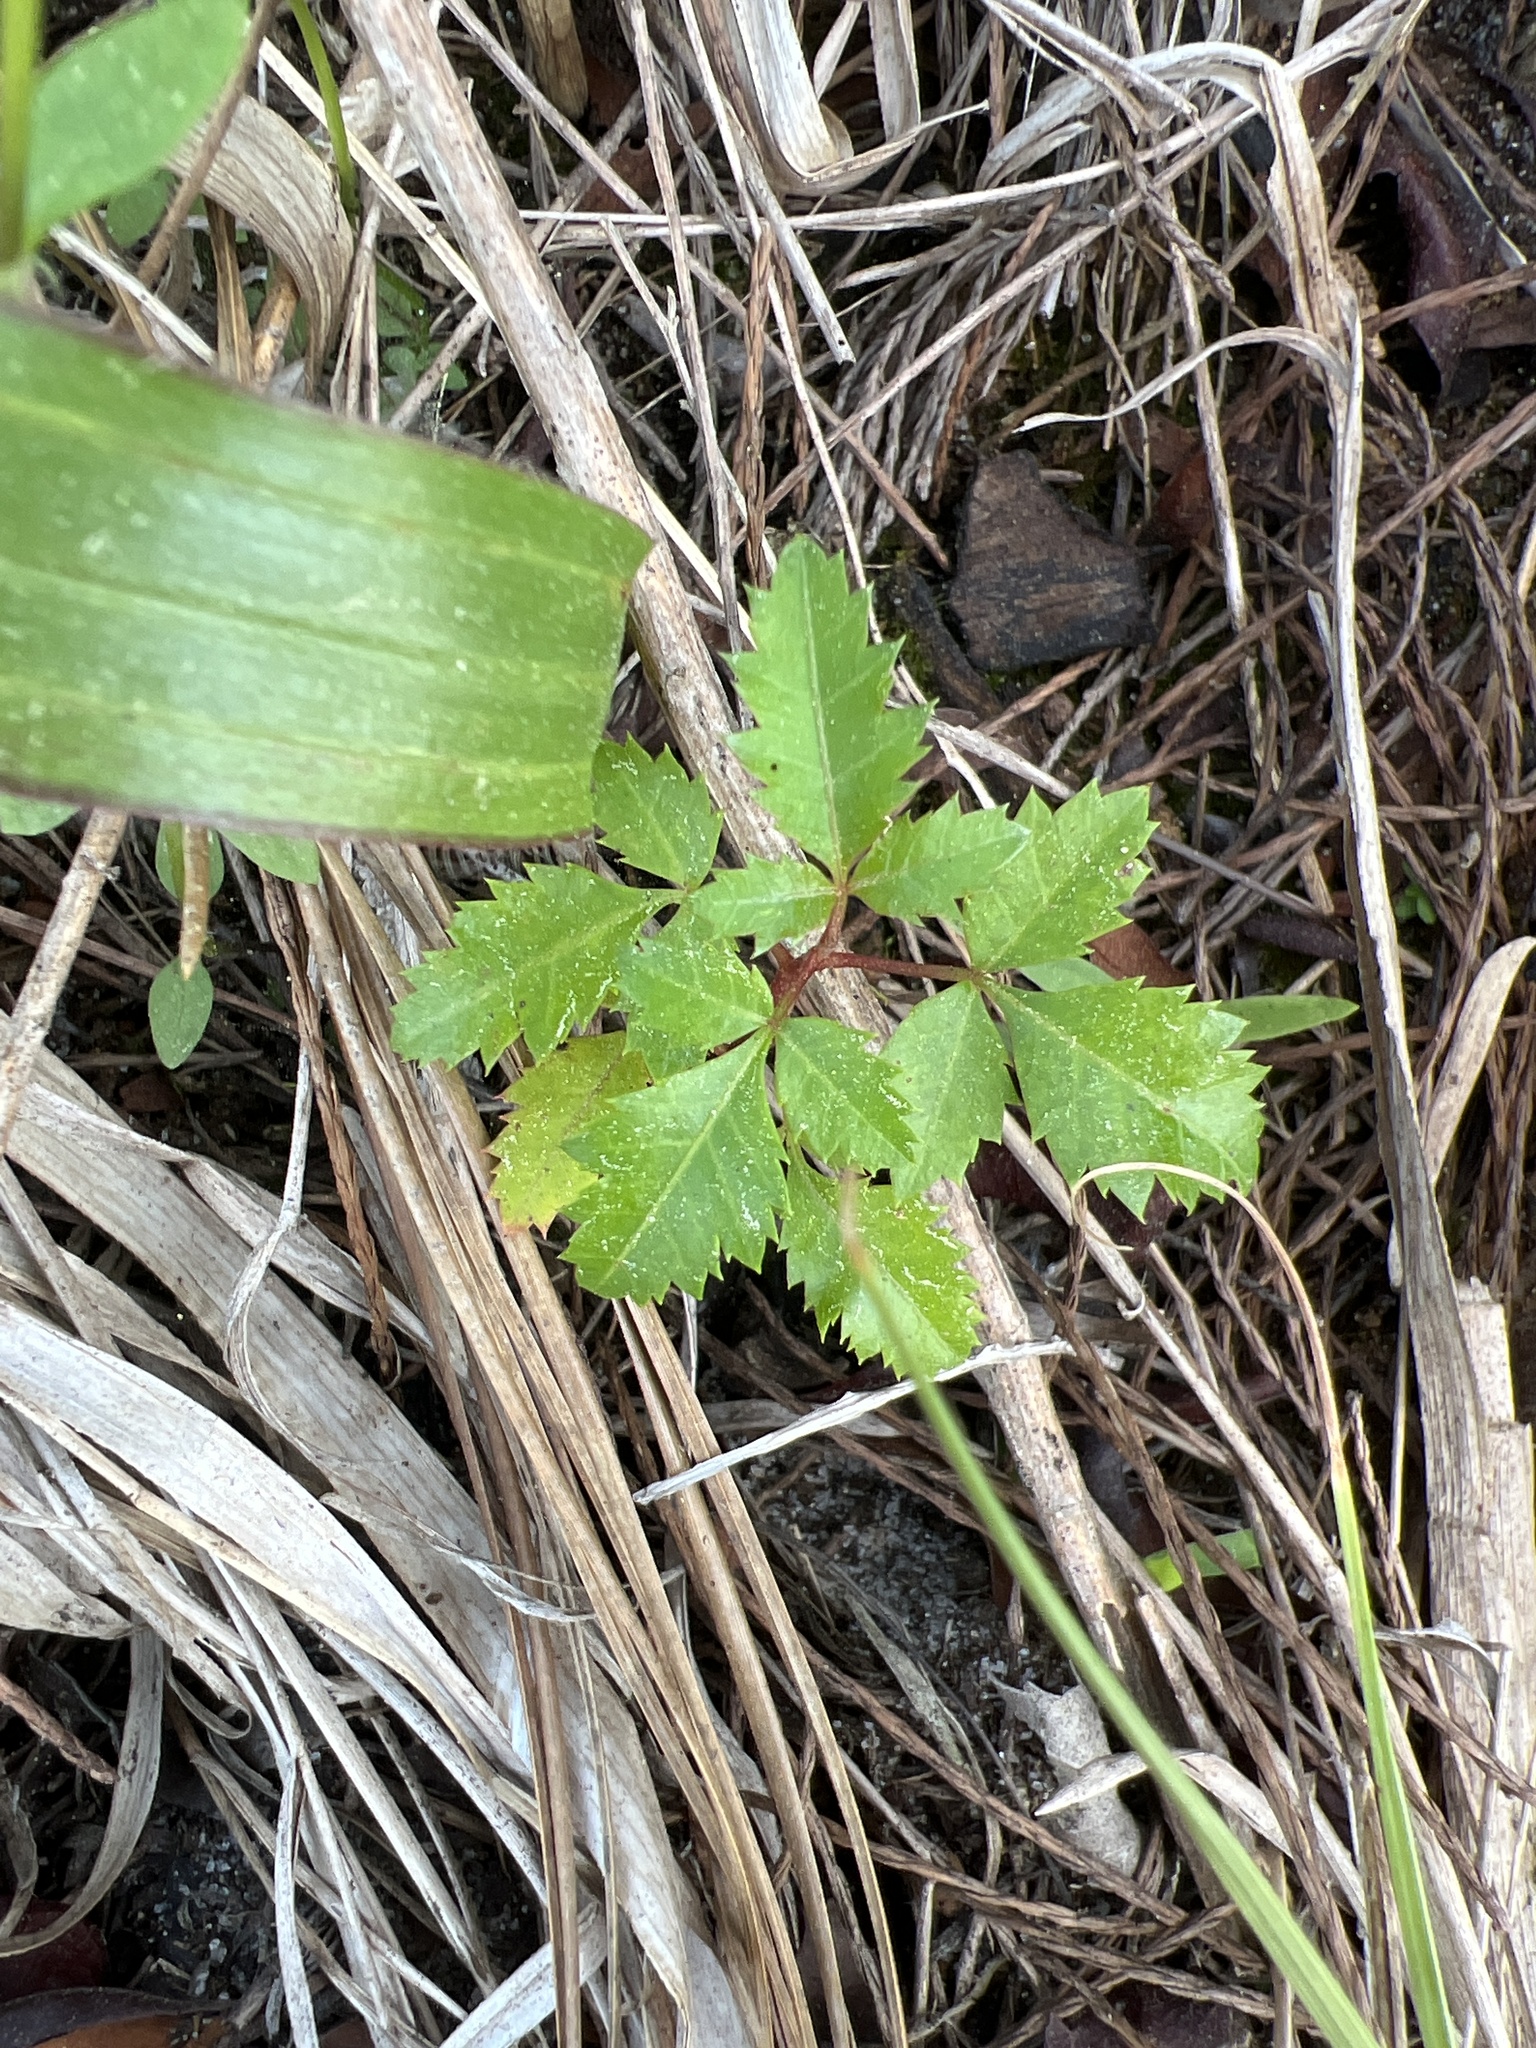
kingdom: Plantae
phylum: Tracheophyta
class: Magnoliopsida
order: Sapindales
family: Anacardiaceae
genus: Schinus
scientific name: Schinus terebinthifolia
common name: Brazilian peppertree
